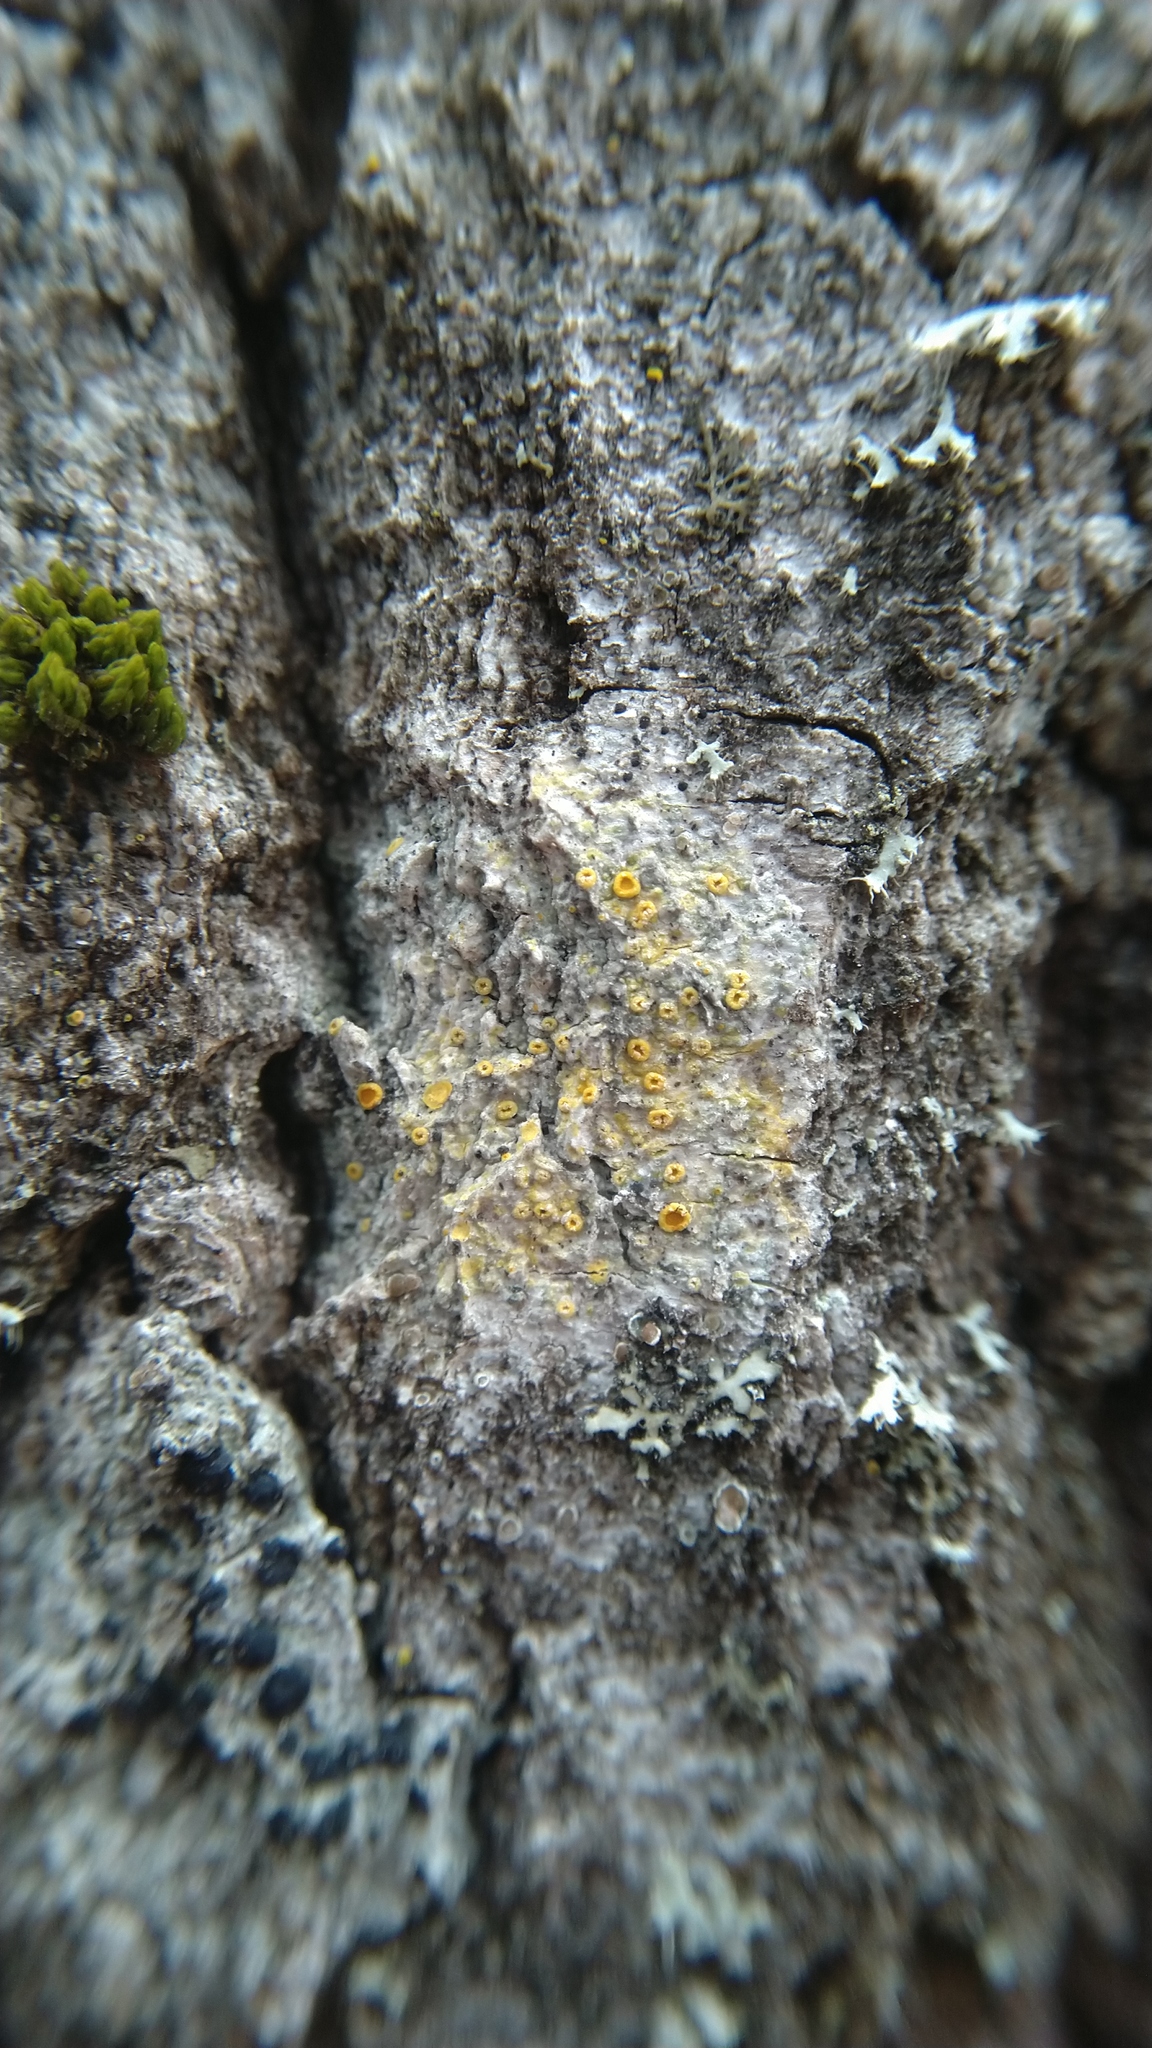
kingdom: Fungi
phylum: Ascomycota
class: Lecanoromycetes
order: Teloschistales
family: Teloschistaceae
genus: Opeltia
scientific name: Opeltia flavorubescens
